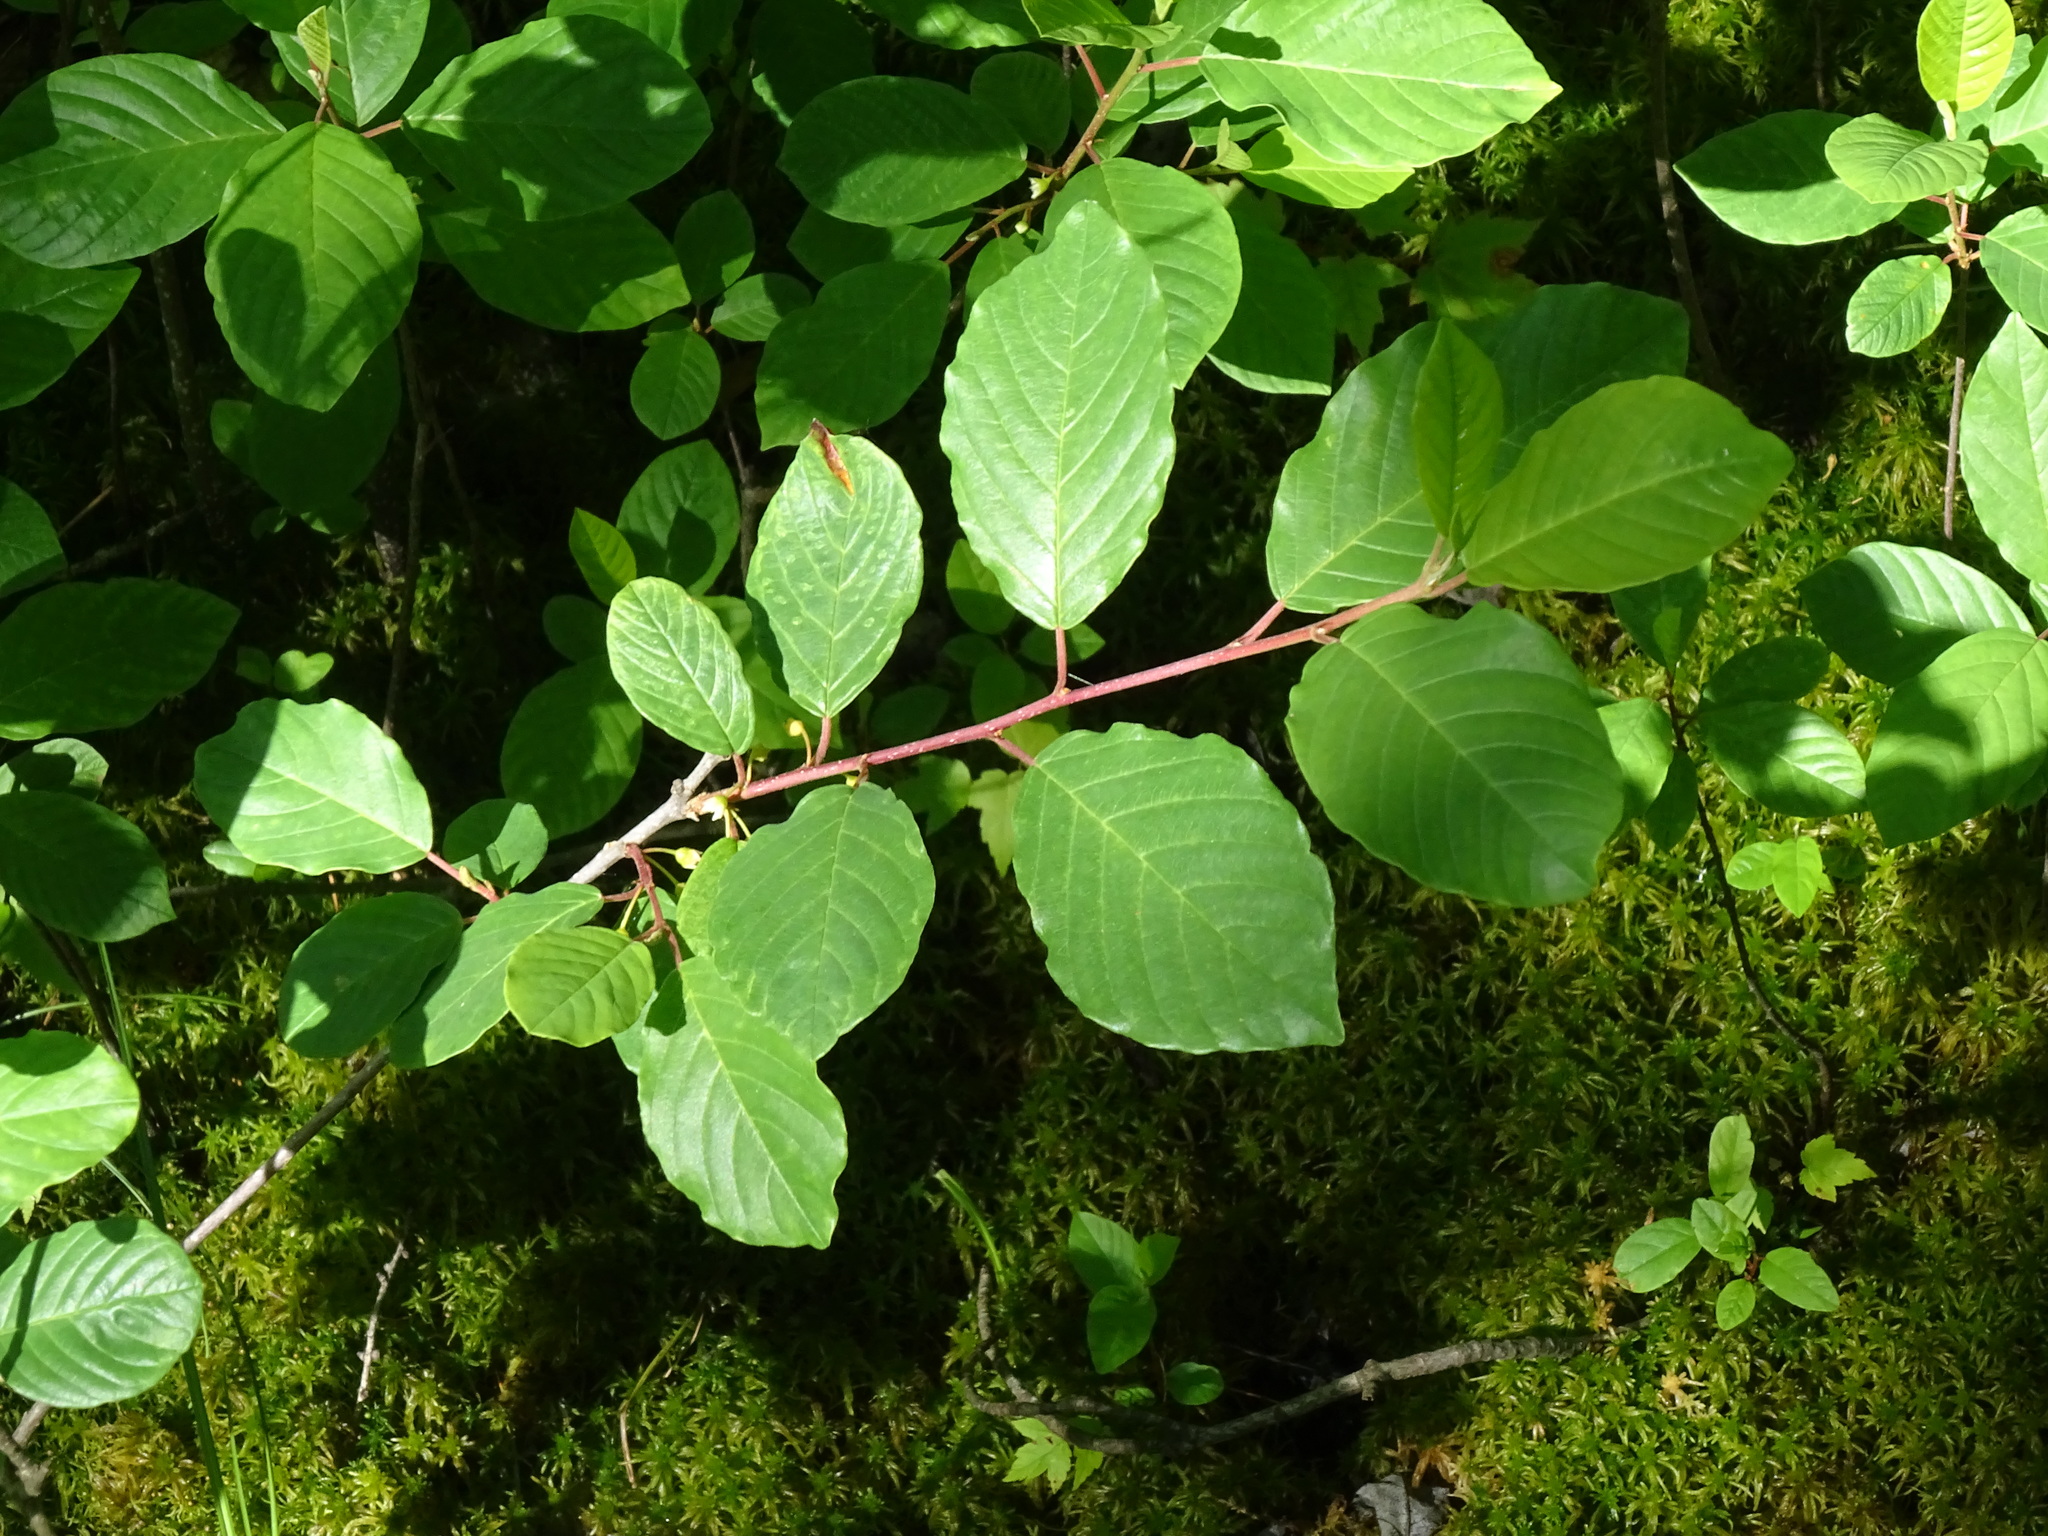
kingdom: Plantae
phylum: Tracheophyta
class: Magnoliopsida
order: Rosales
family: Rhamnaceae
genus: Frangula
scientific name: Frangula alnus
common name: Alder buckthorn
